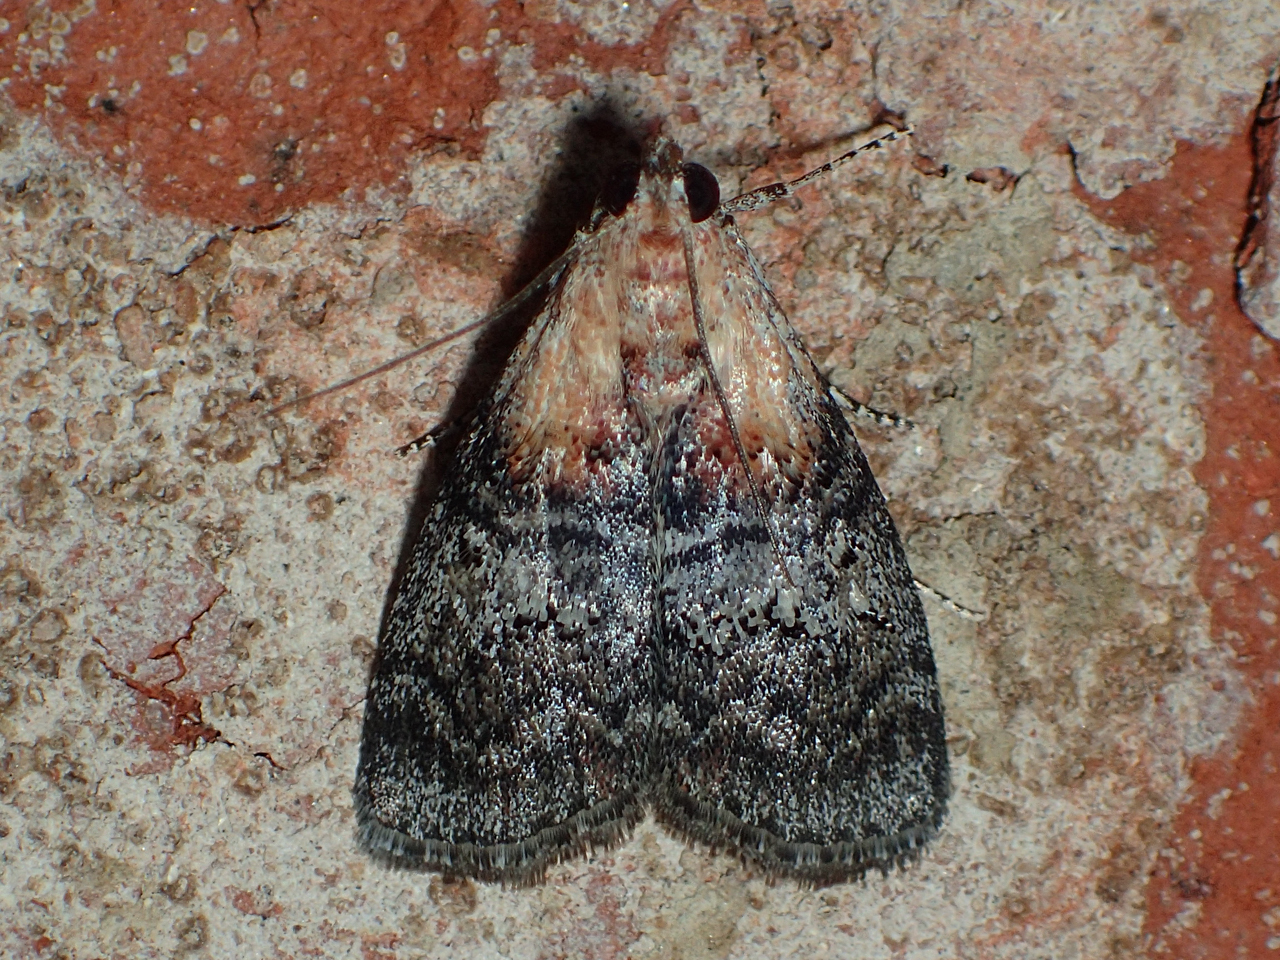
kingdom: Animalia
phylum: Arthropoda
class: Insecta
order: Lepidoptera
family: Pyralidae
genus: Pococera
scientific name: Pococera expandens
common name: Striped oak webworm moth
